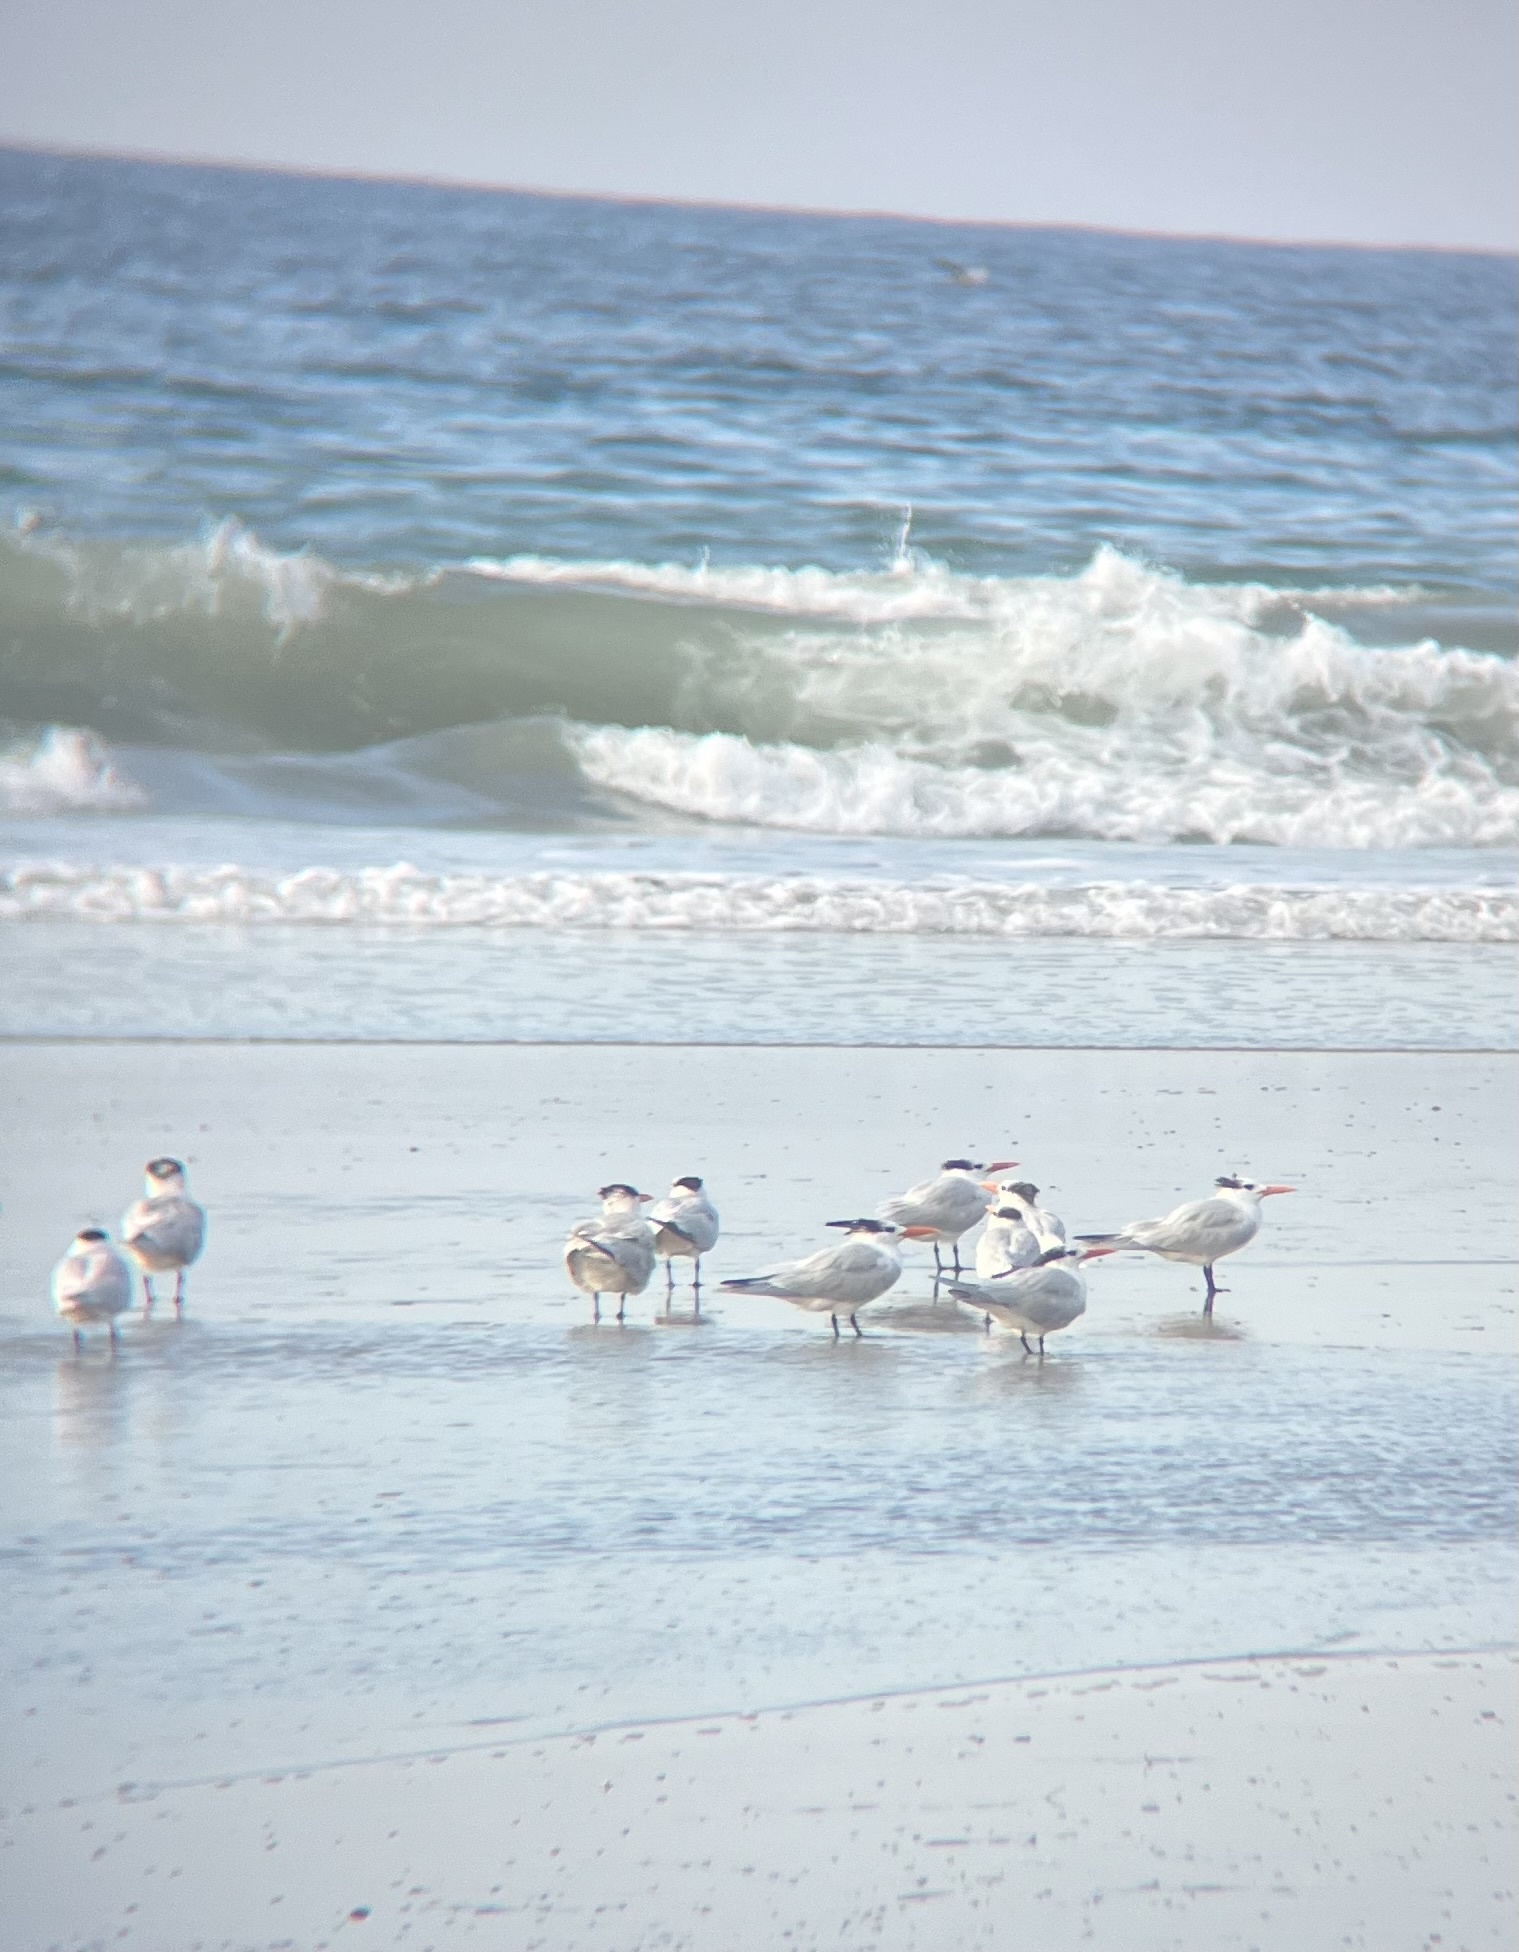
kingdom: Animalia
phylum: Chordata
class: Aves
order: Charadriiformes
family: Laridae
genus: Thalasseus
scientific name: Thalasseus maximus
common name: Royal tern
